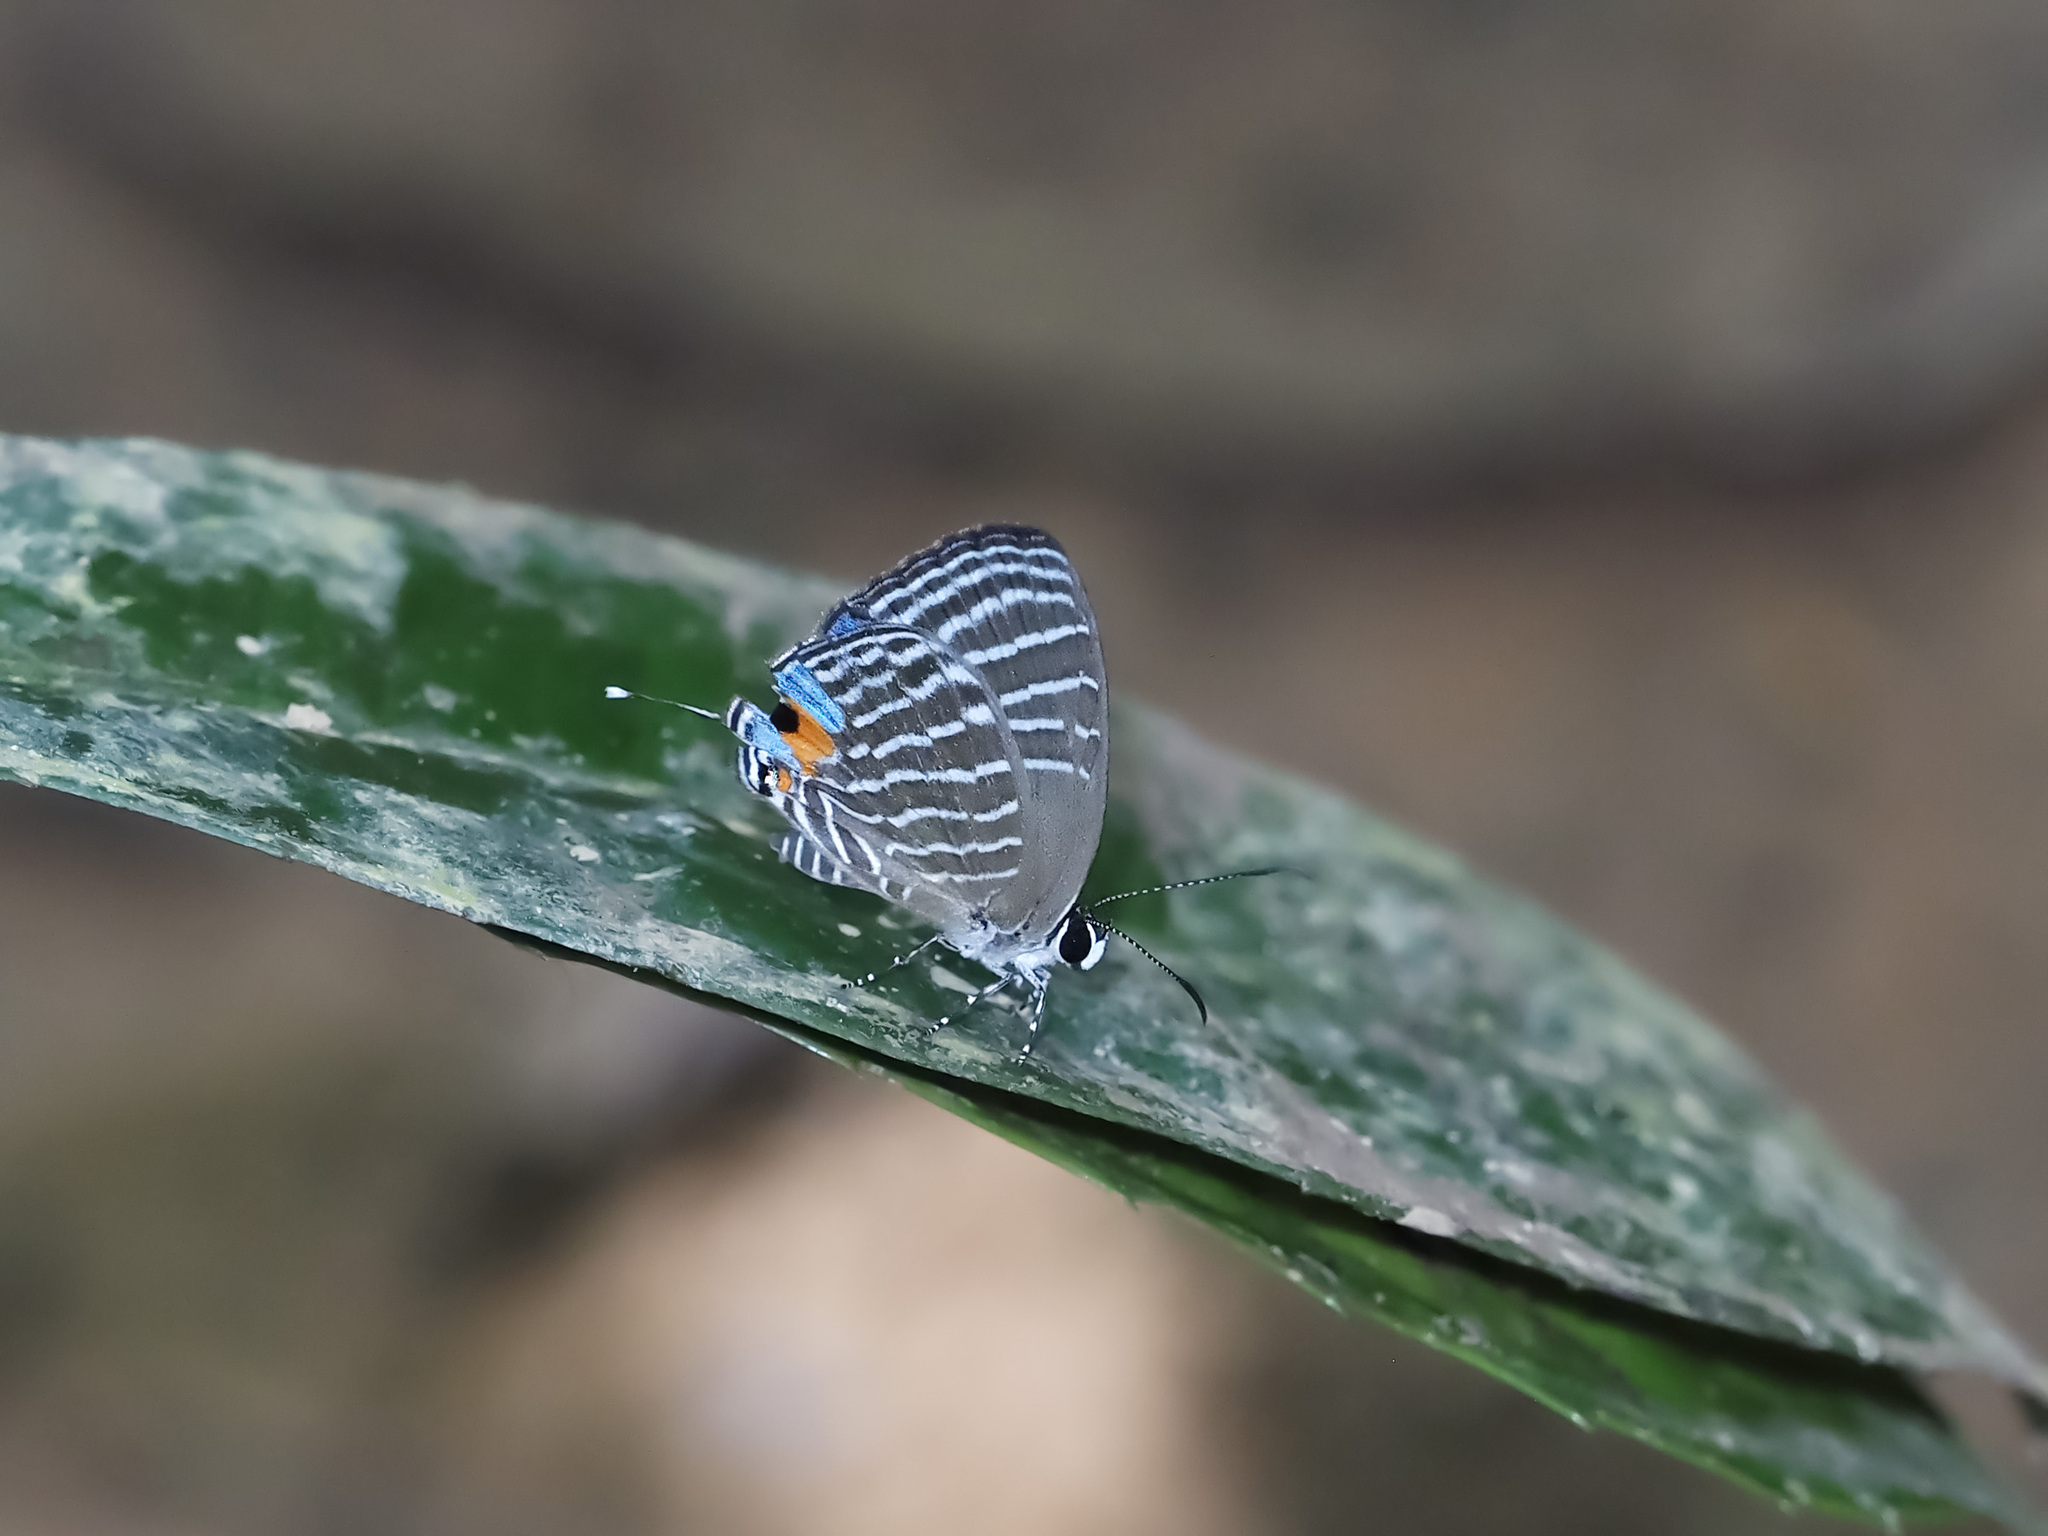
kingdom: Animalia
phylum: Arthropoda
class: Insecta
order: Lepidoptera
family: Lycaenidae
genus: Jamides
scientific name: Jamides malaccanus
